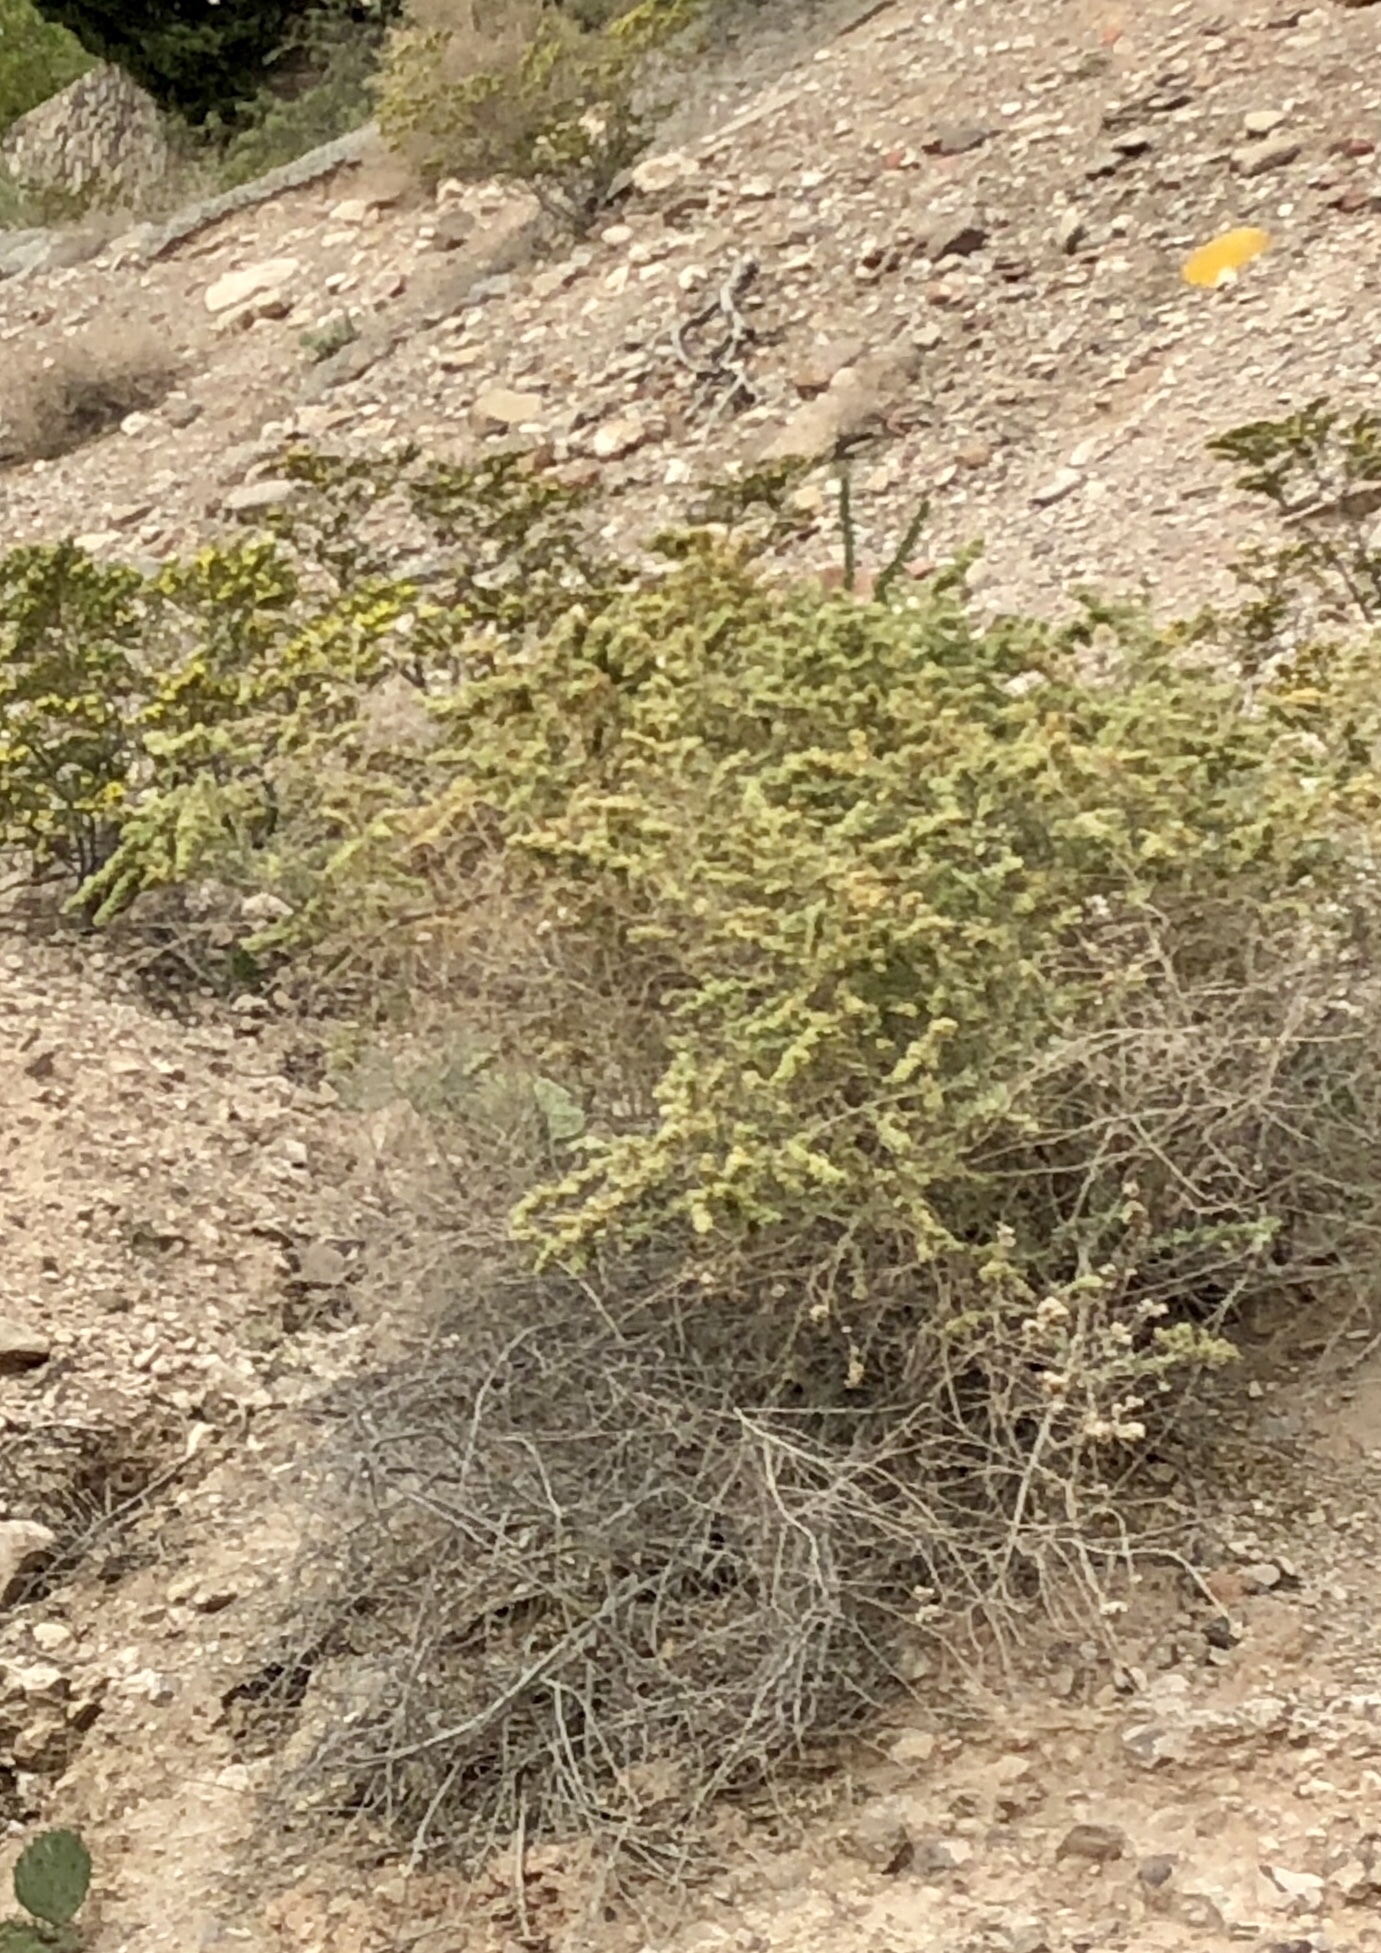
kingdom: Plantae
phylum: Tracheophyta
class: Magnoliopsida
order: Caryophyllales
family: Amaranthaceae
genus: Atriplex
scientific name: Atriplex canescens
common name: Four-wing saltbush
